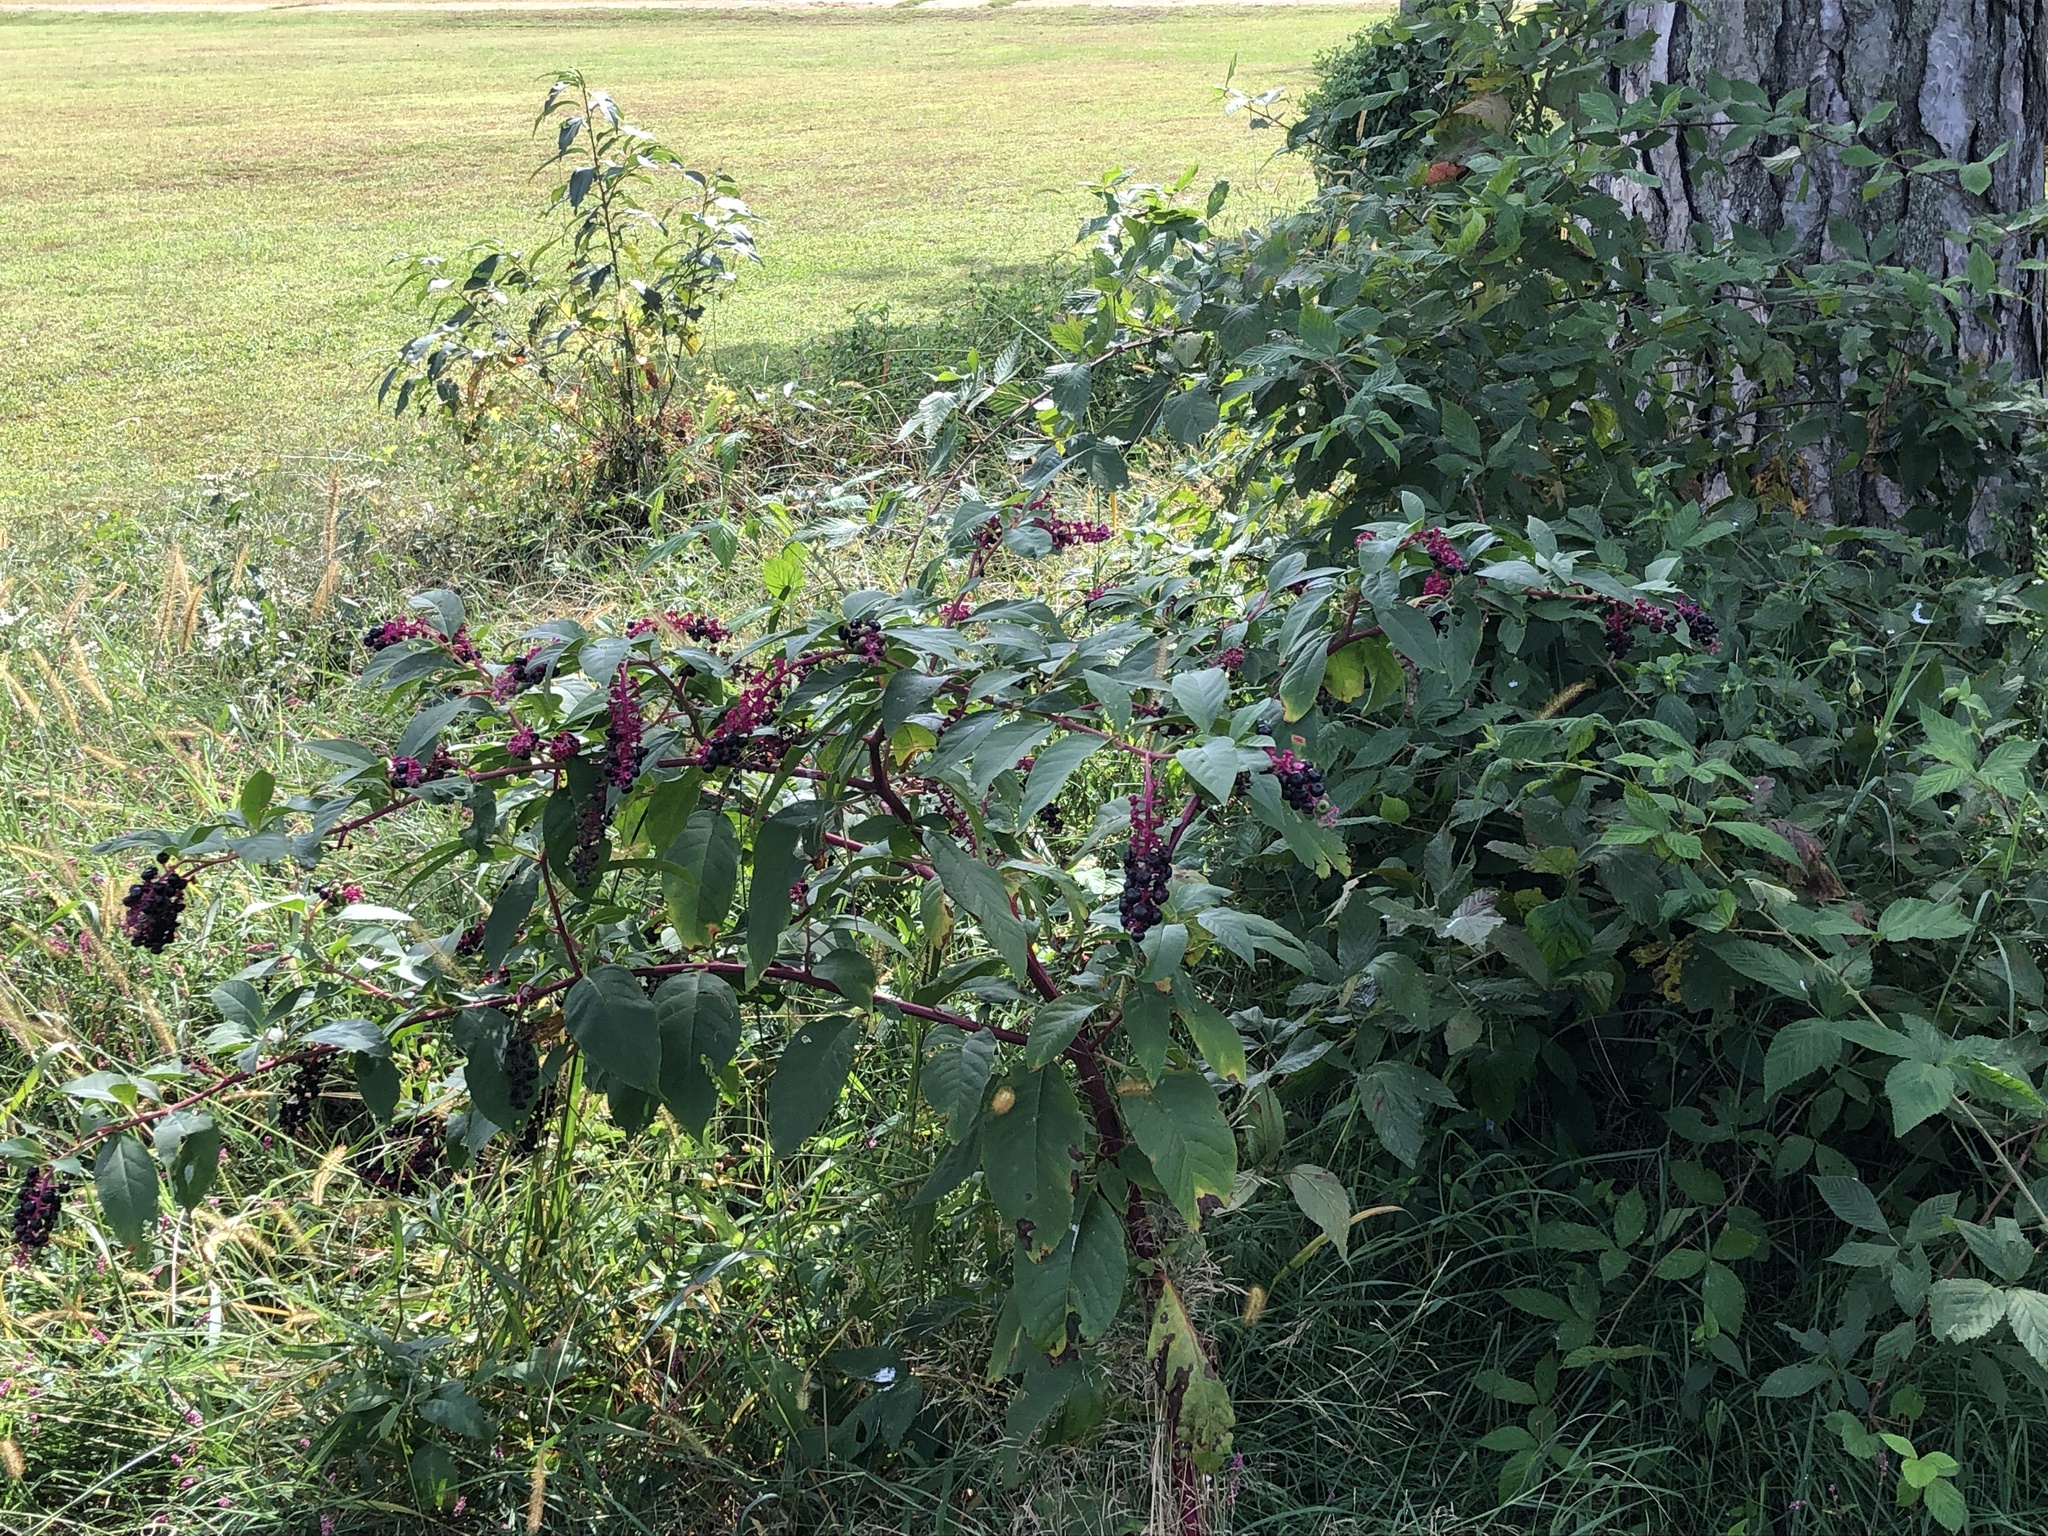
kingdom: Plantae
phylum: Tracheophyta
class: Magnoliopsida
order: Caryophyllales
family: Phytolaccaceae
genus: Phytolacca
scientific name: Phytolacca americana
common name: American pokeweed
